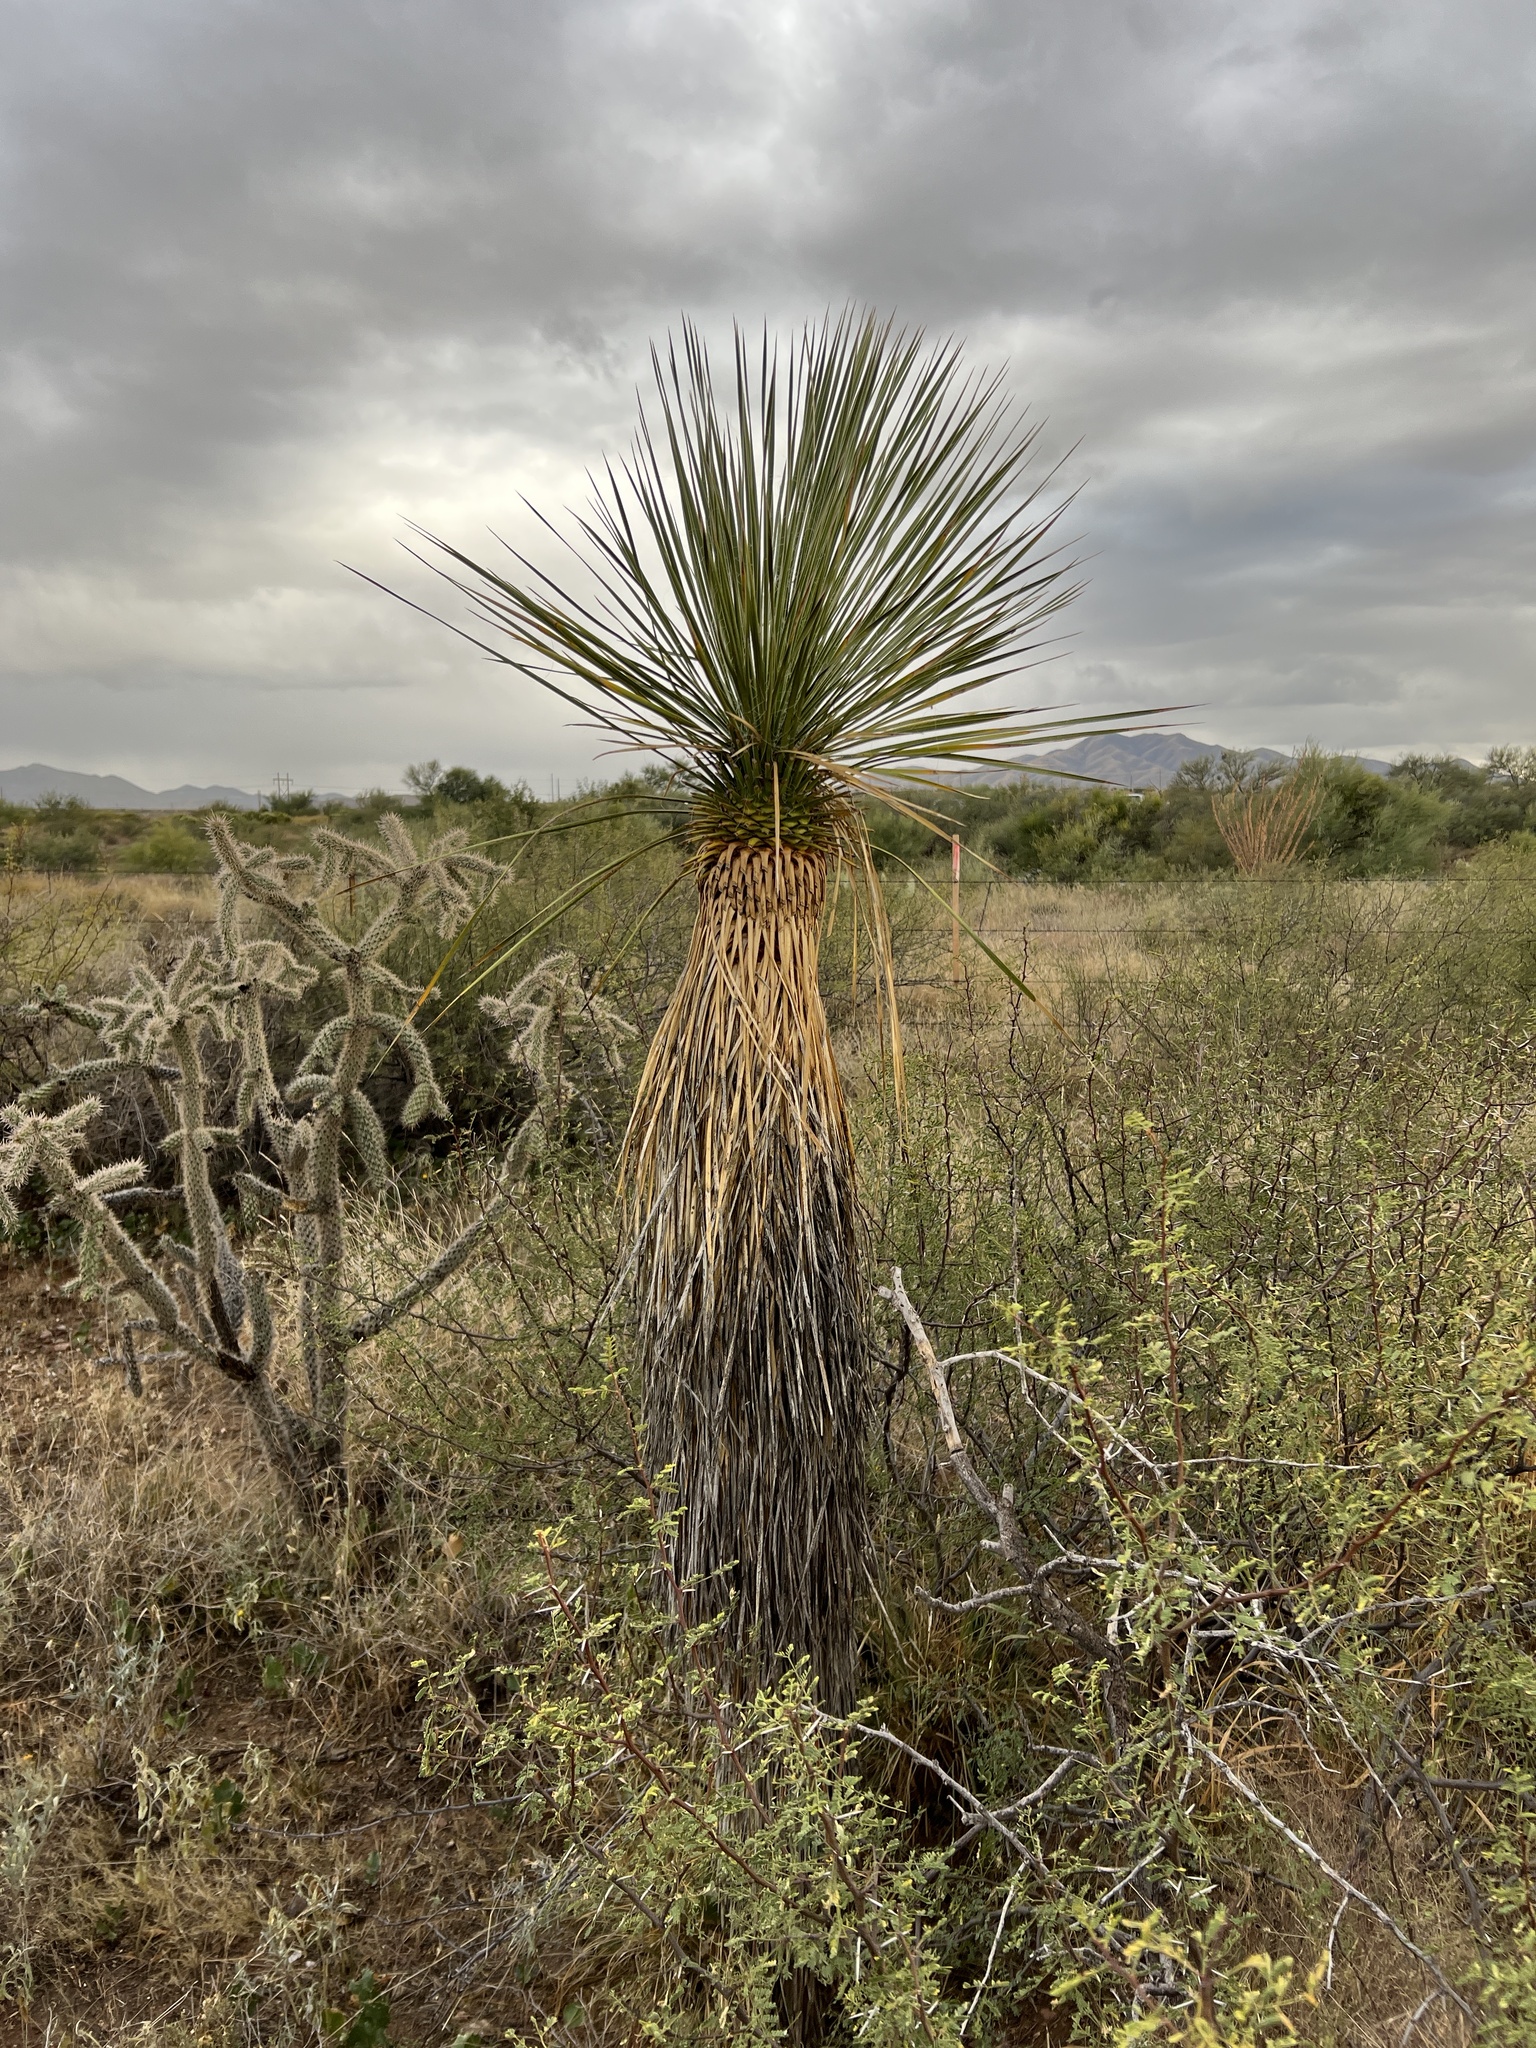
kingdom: Plantae
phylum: Tracheophyta
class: Liliopsida
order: Asparagales
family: Asparagaceae
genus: Yucca
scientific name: Yucca elata
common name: Palmella
